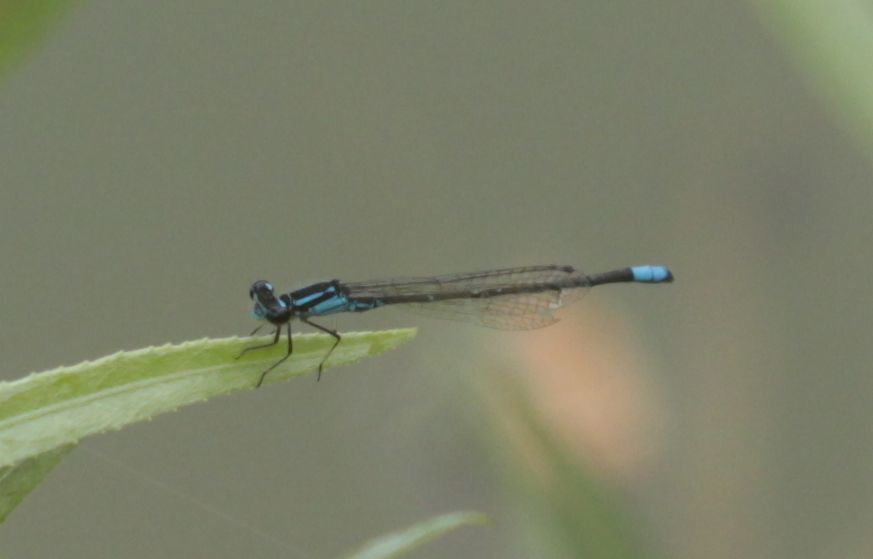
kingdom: Animalia
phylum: Arthropoda
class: Insecta
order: Odonata
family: Coenagrionidae
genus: Enallagma
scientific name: Enallagma geminatum
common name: Skimming bluet
